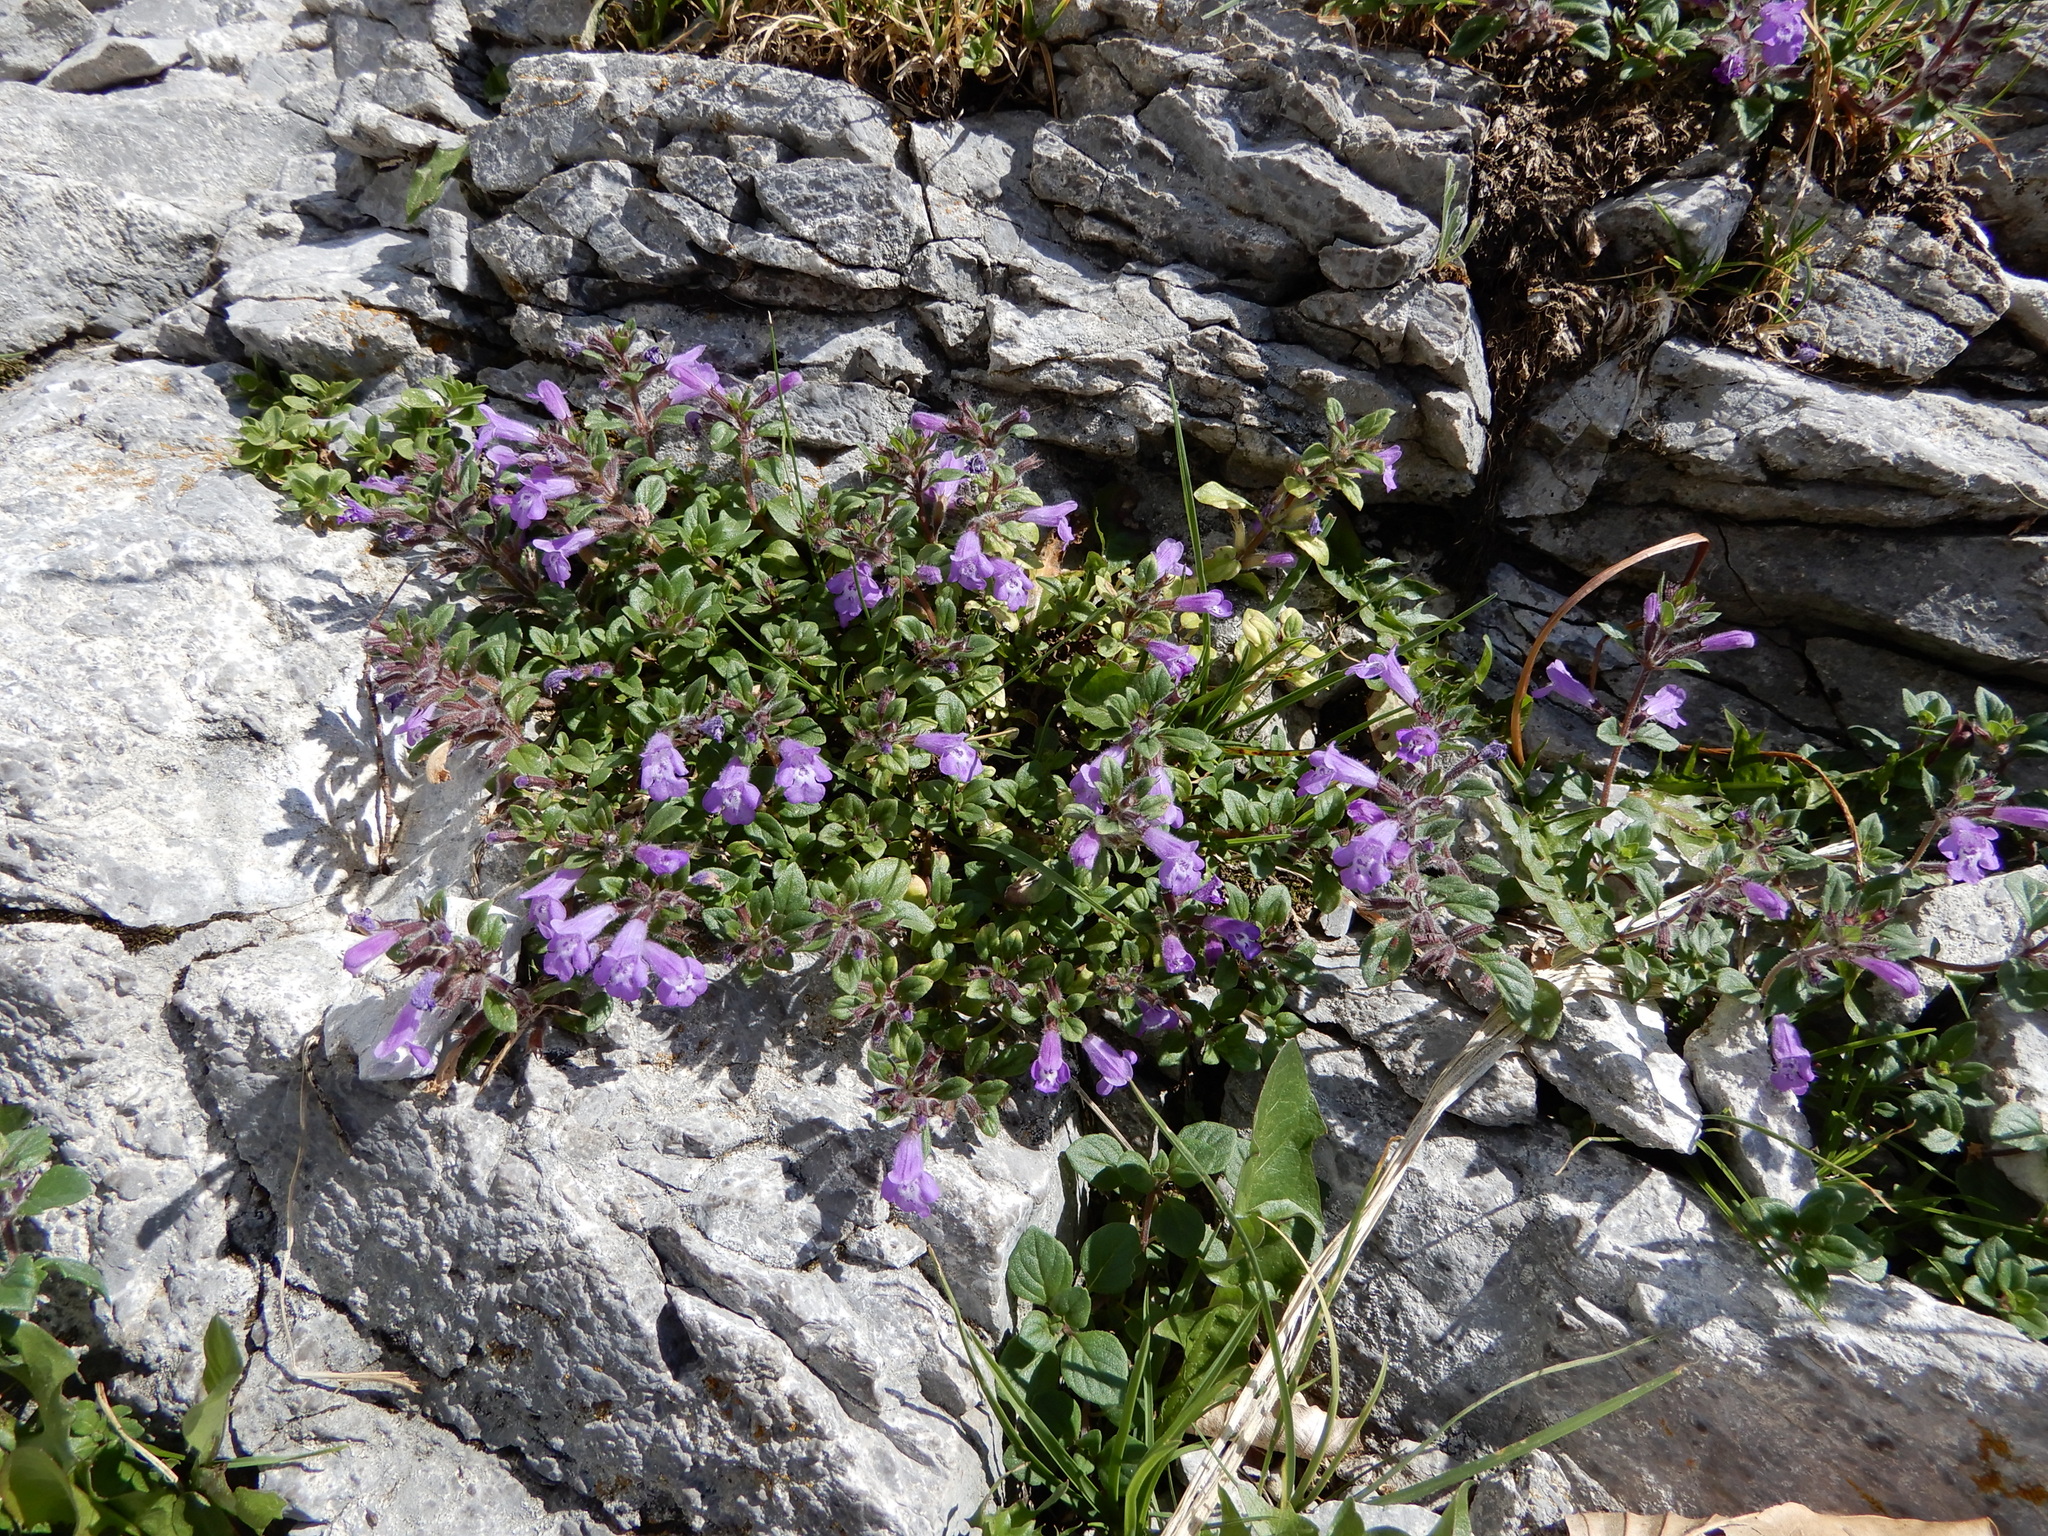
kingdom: Plantae
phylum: Tracheophyta
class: Magnoliopsida
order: Lamiales
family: Lamiaceae
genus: Clinopodium
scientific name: Clinopodium alpinum
